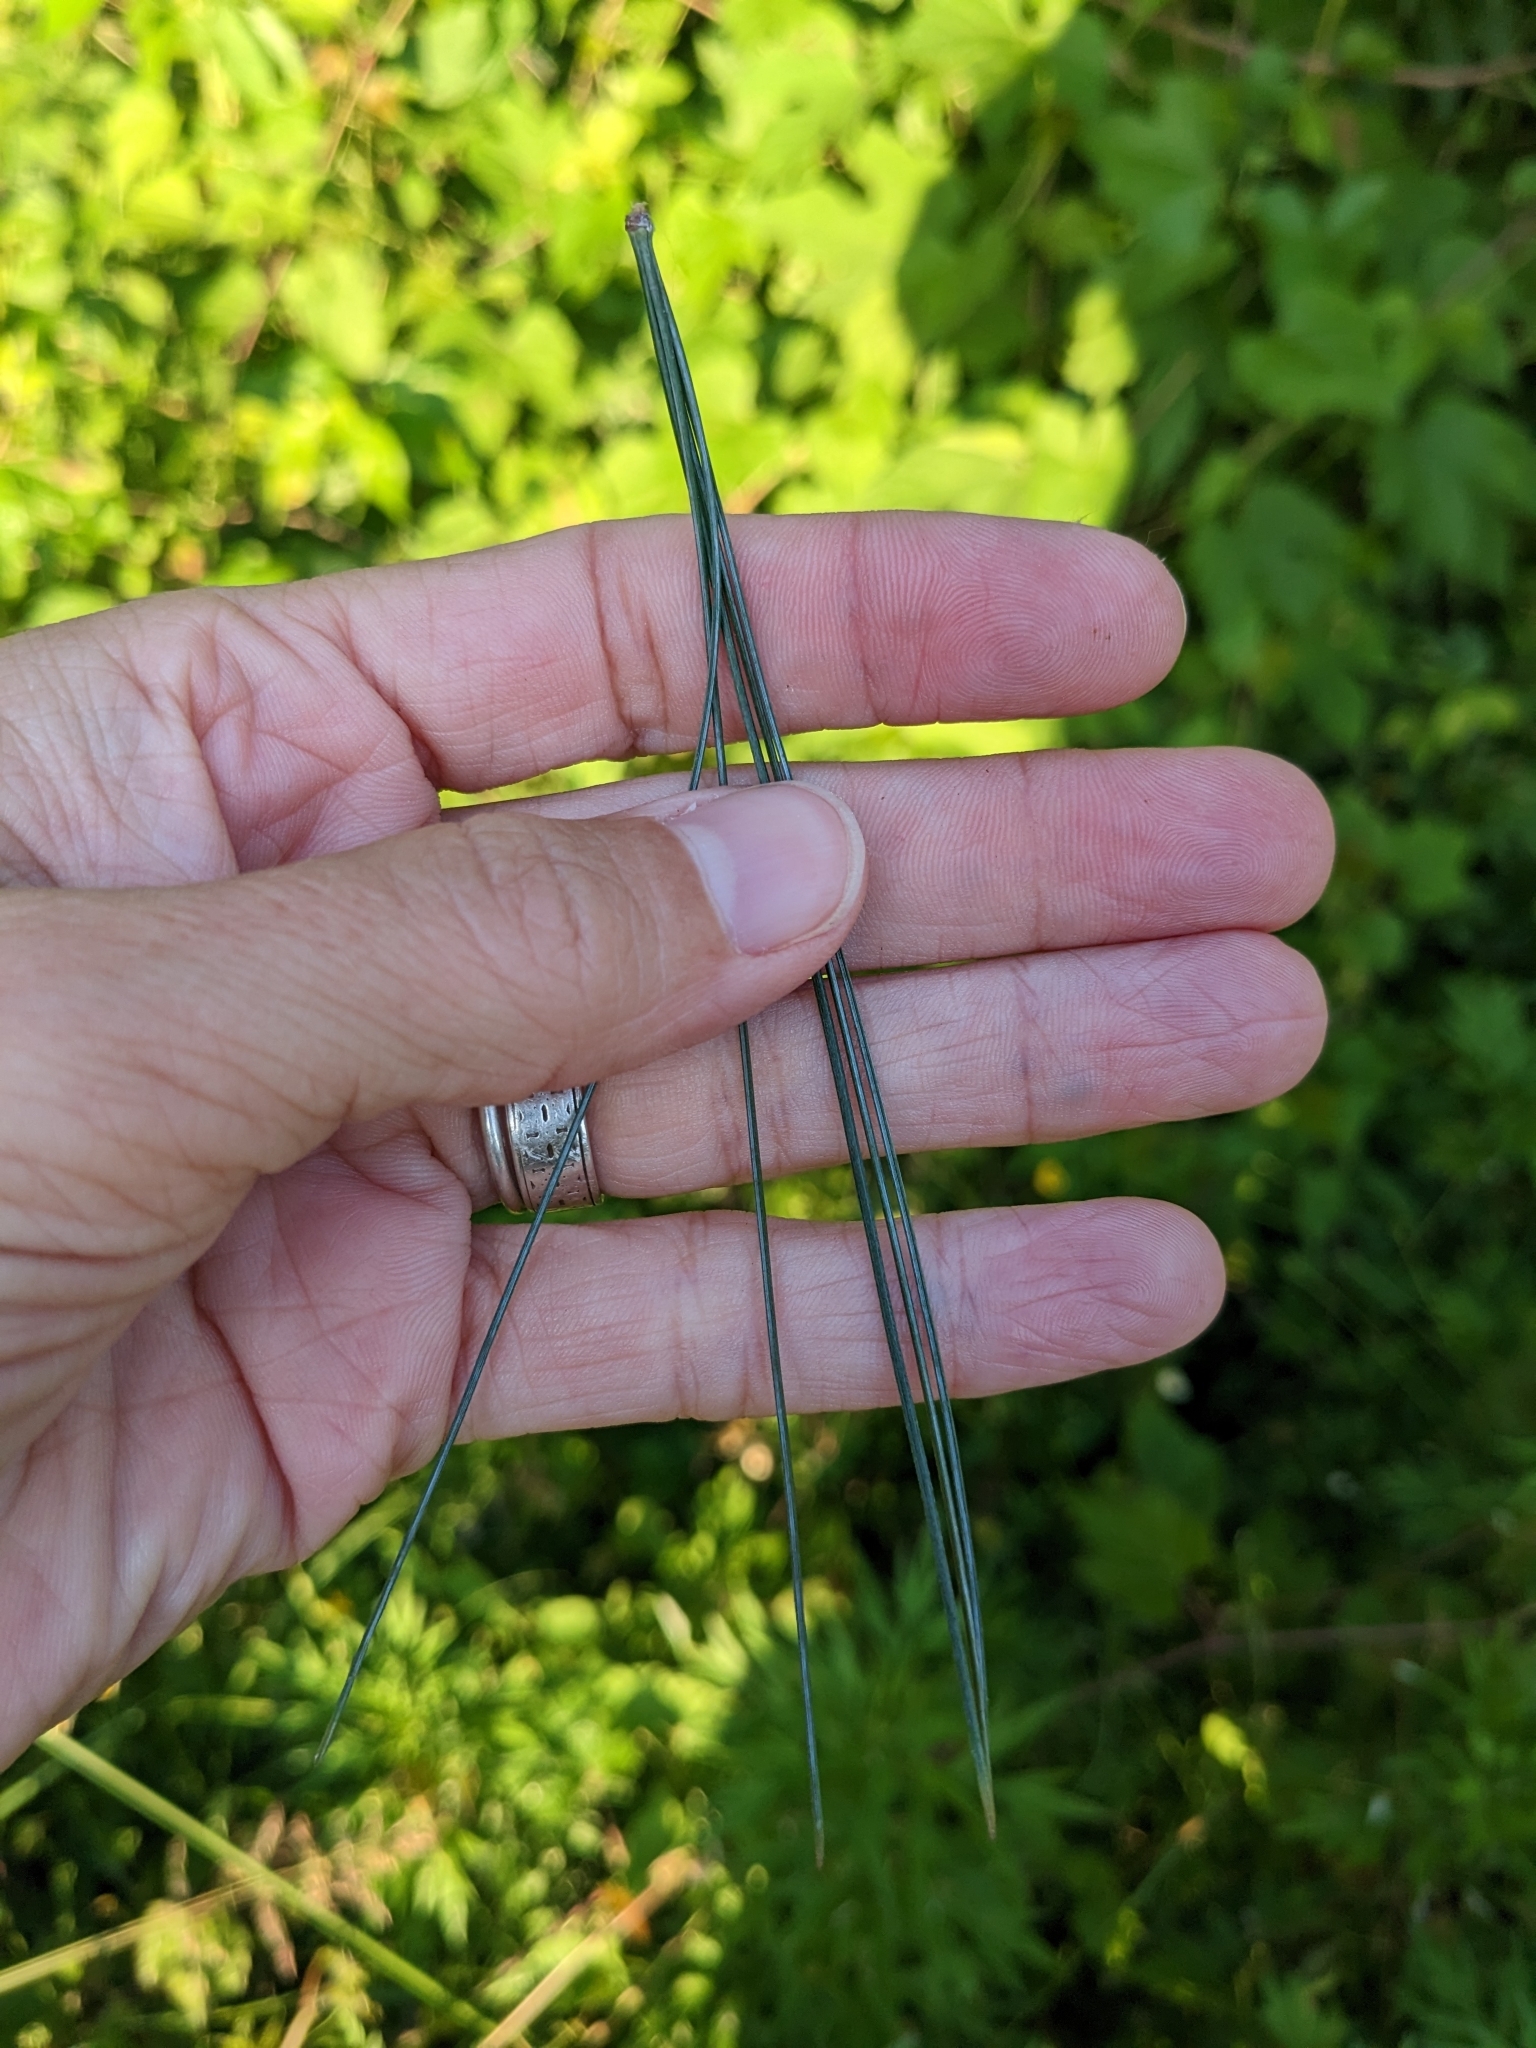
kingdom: Plantae
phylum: Tracheophyta
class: Pinopsida
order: Pinales
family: Pinaceae
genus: Pinus
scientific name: Pinus strobus
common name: Weymouth pine
